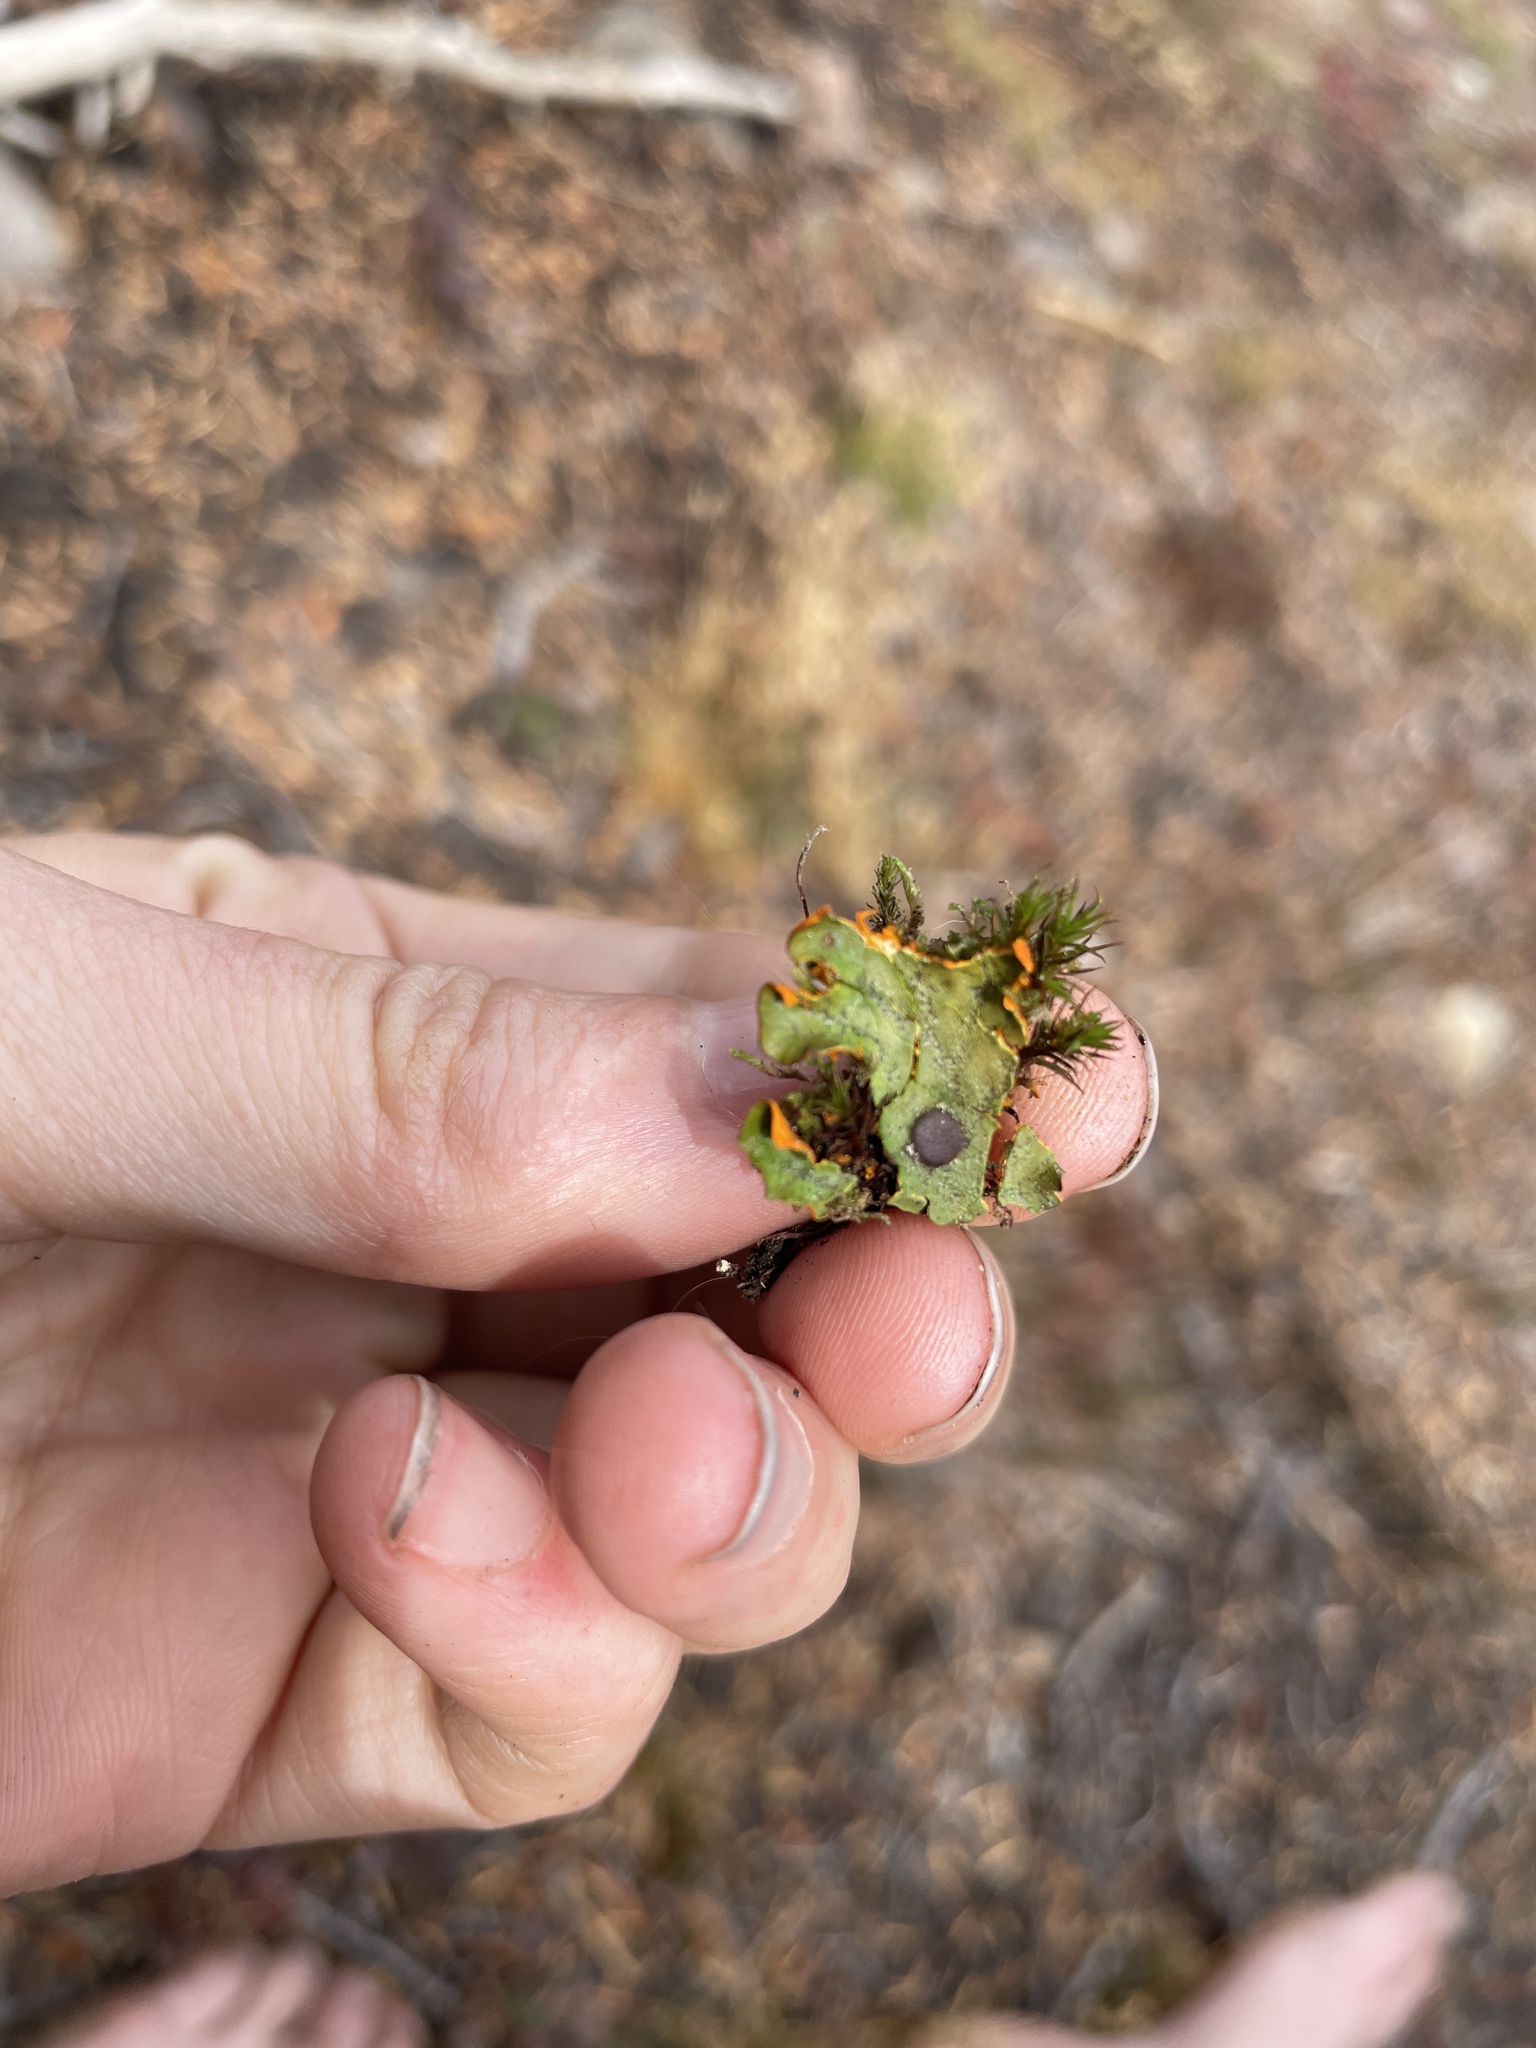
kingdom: Fungi
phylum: Ascomycota
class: Lecanoromycetes
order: Peltigerales
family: Peltigeraceae
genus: Solorina
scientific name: Solorina crocea
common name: Mountain saffron
